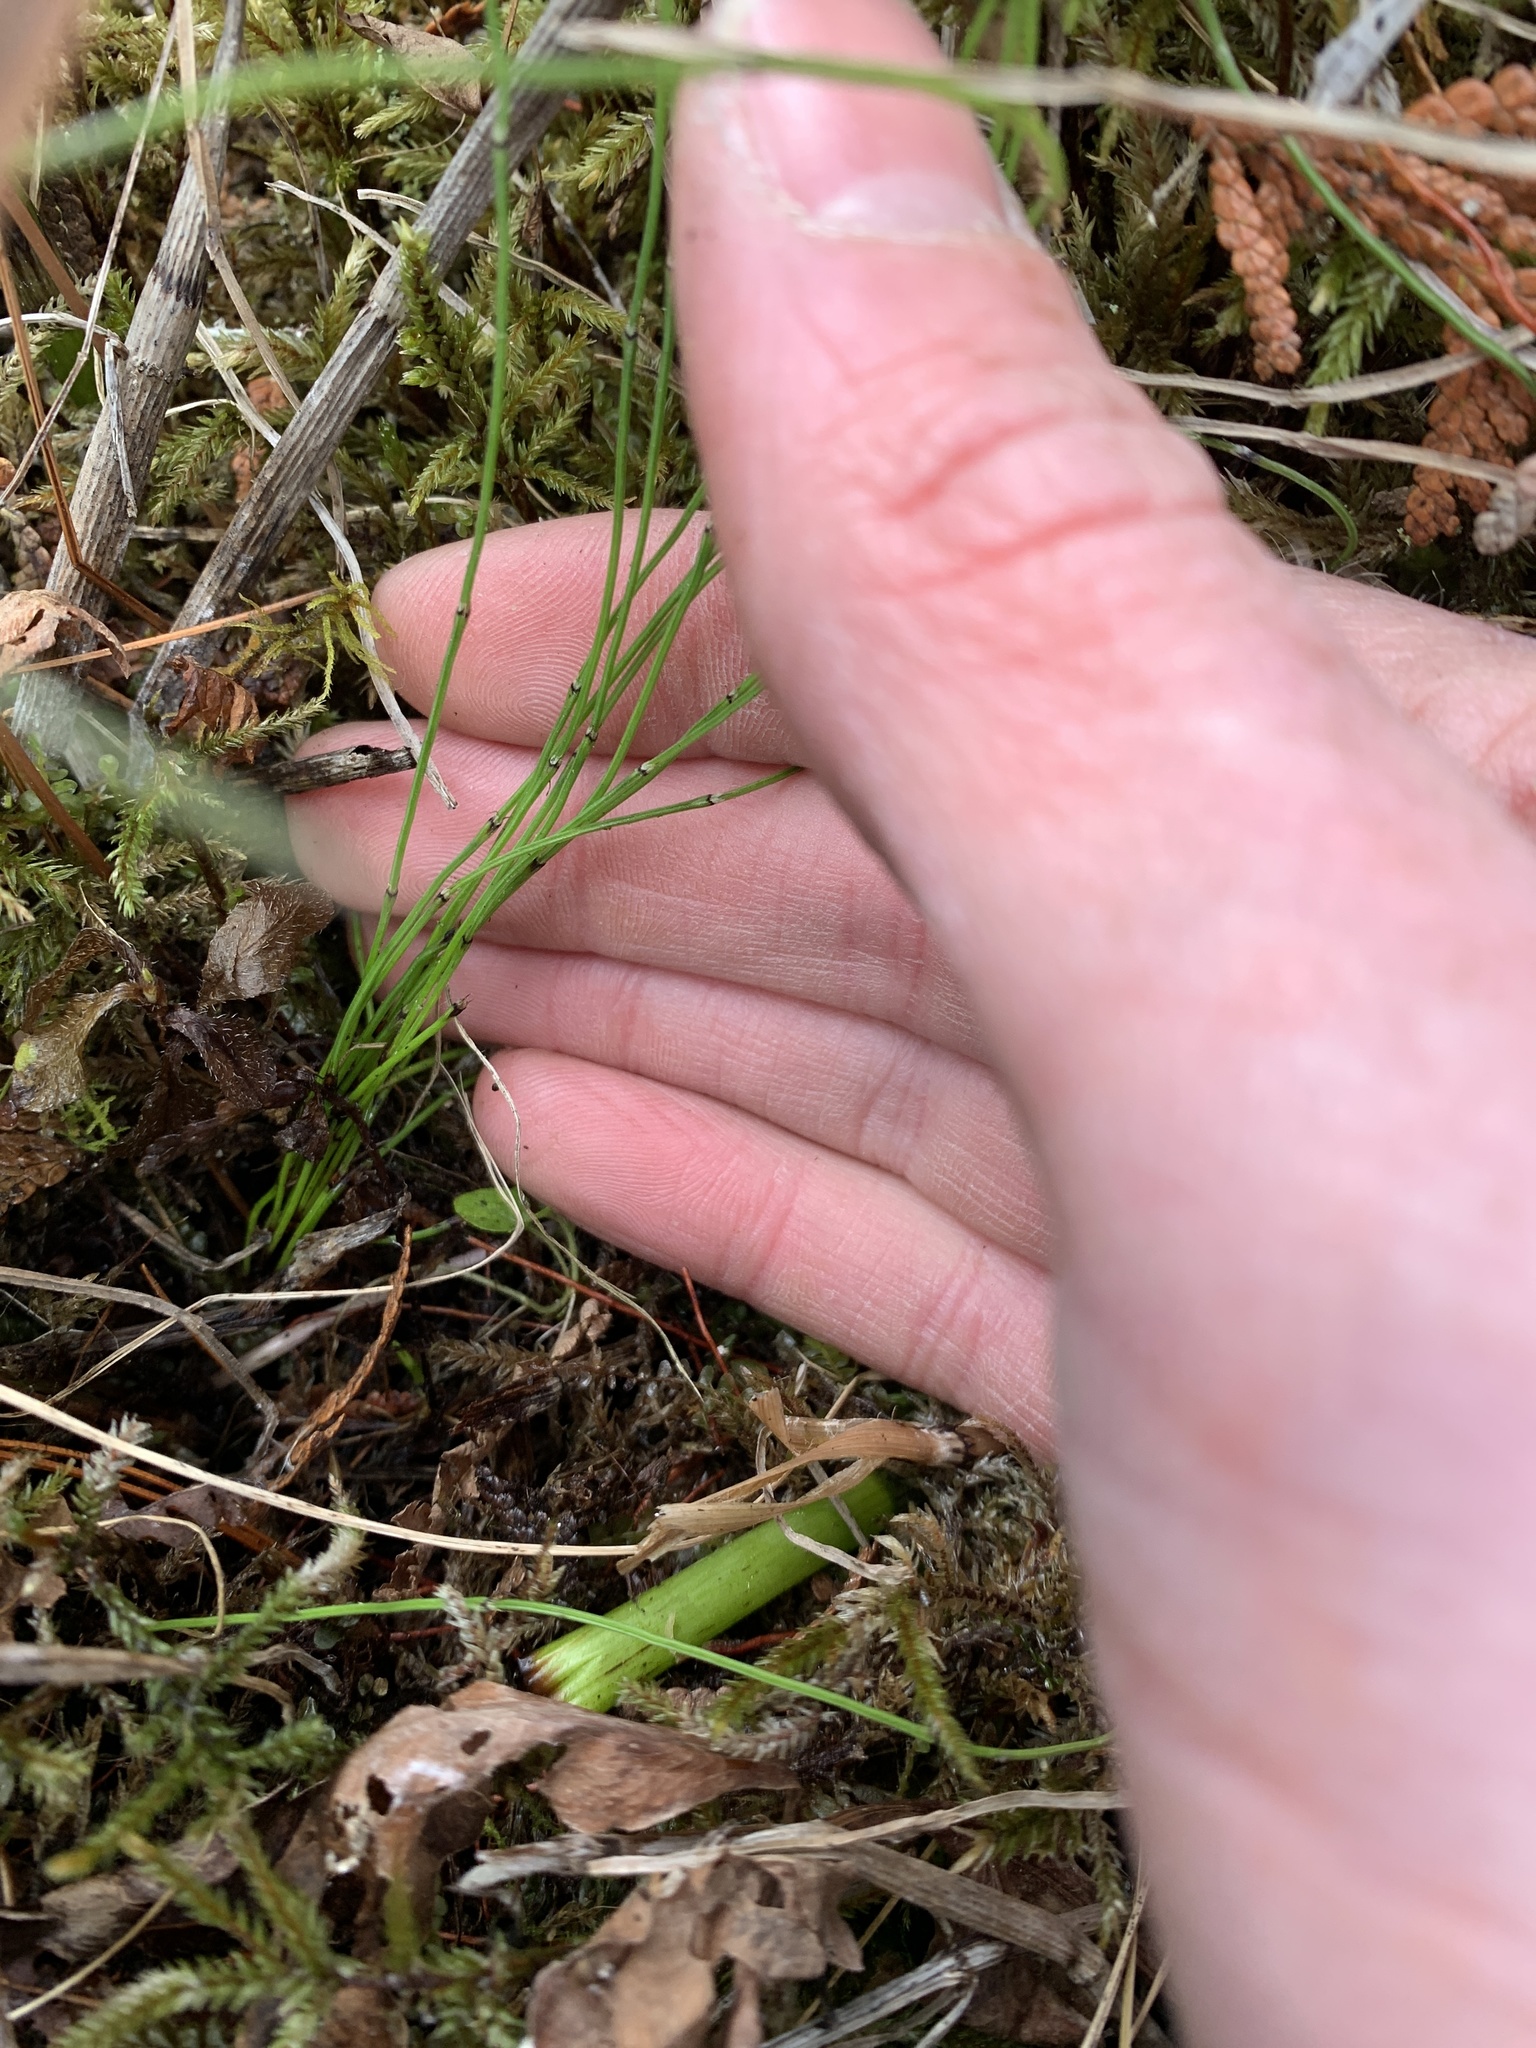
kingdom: Plantae
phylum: Tracheophyta
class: Polypodiopsida
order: Equisetales
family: Equisetaceae
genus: Equisetum
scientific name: Equisetum scirpoides
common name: Delicate horsetail
